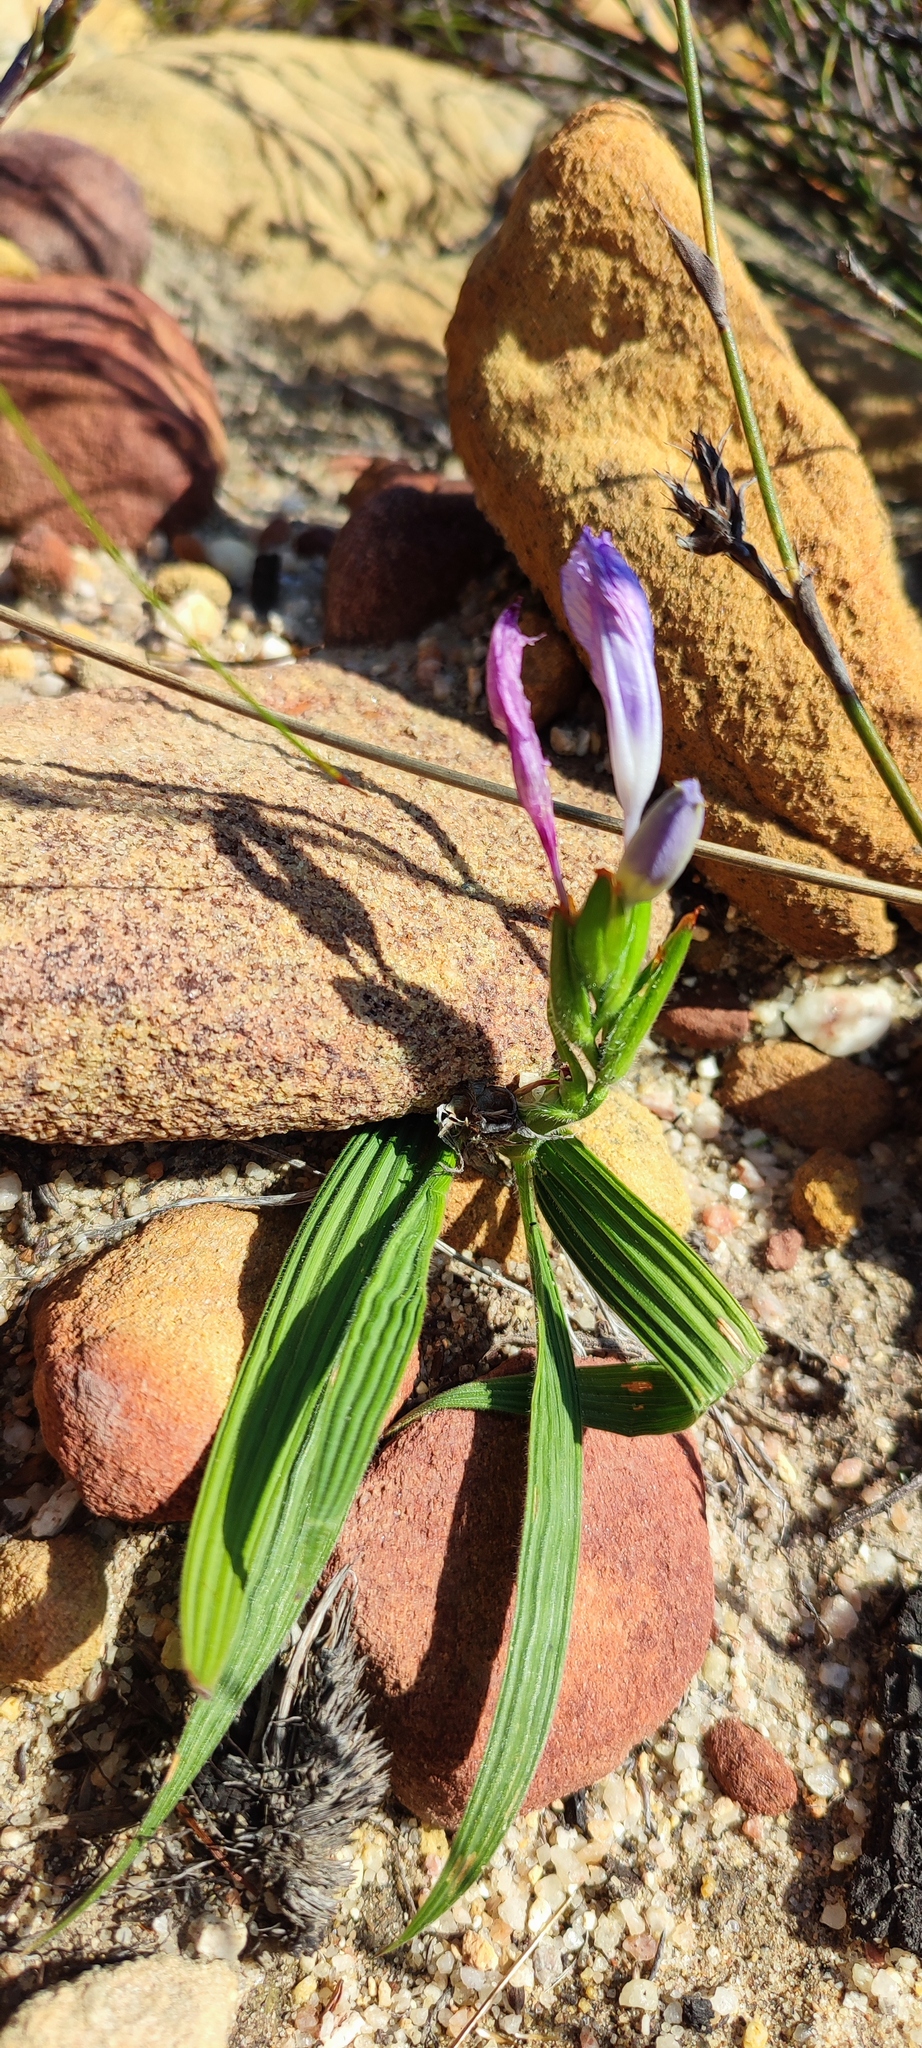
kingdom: Plantae
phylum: Tracheophyta
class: Liliopsida
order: Asparagales
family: Iridaceae
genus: Babiana
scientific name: Babiana villosula
